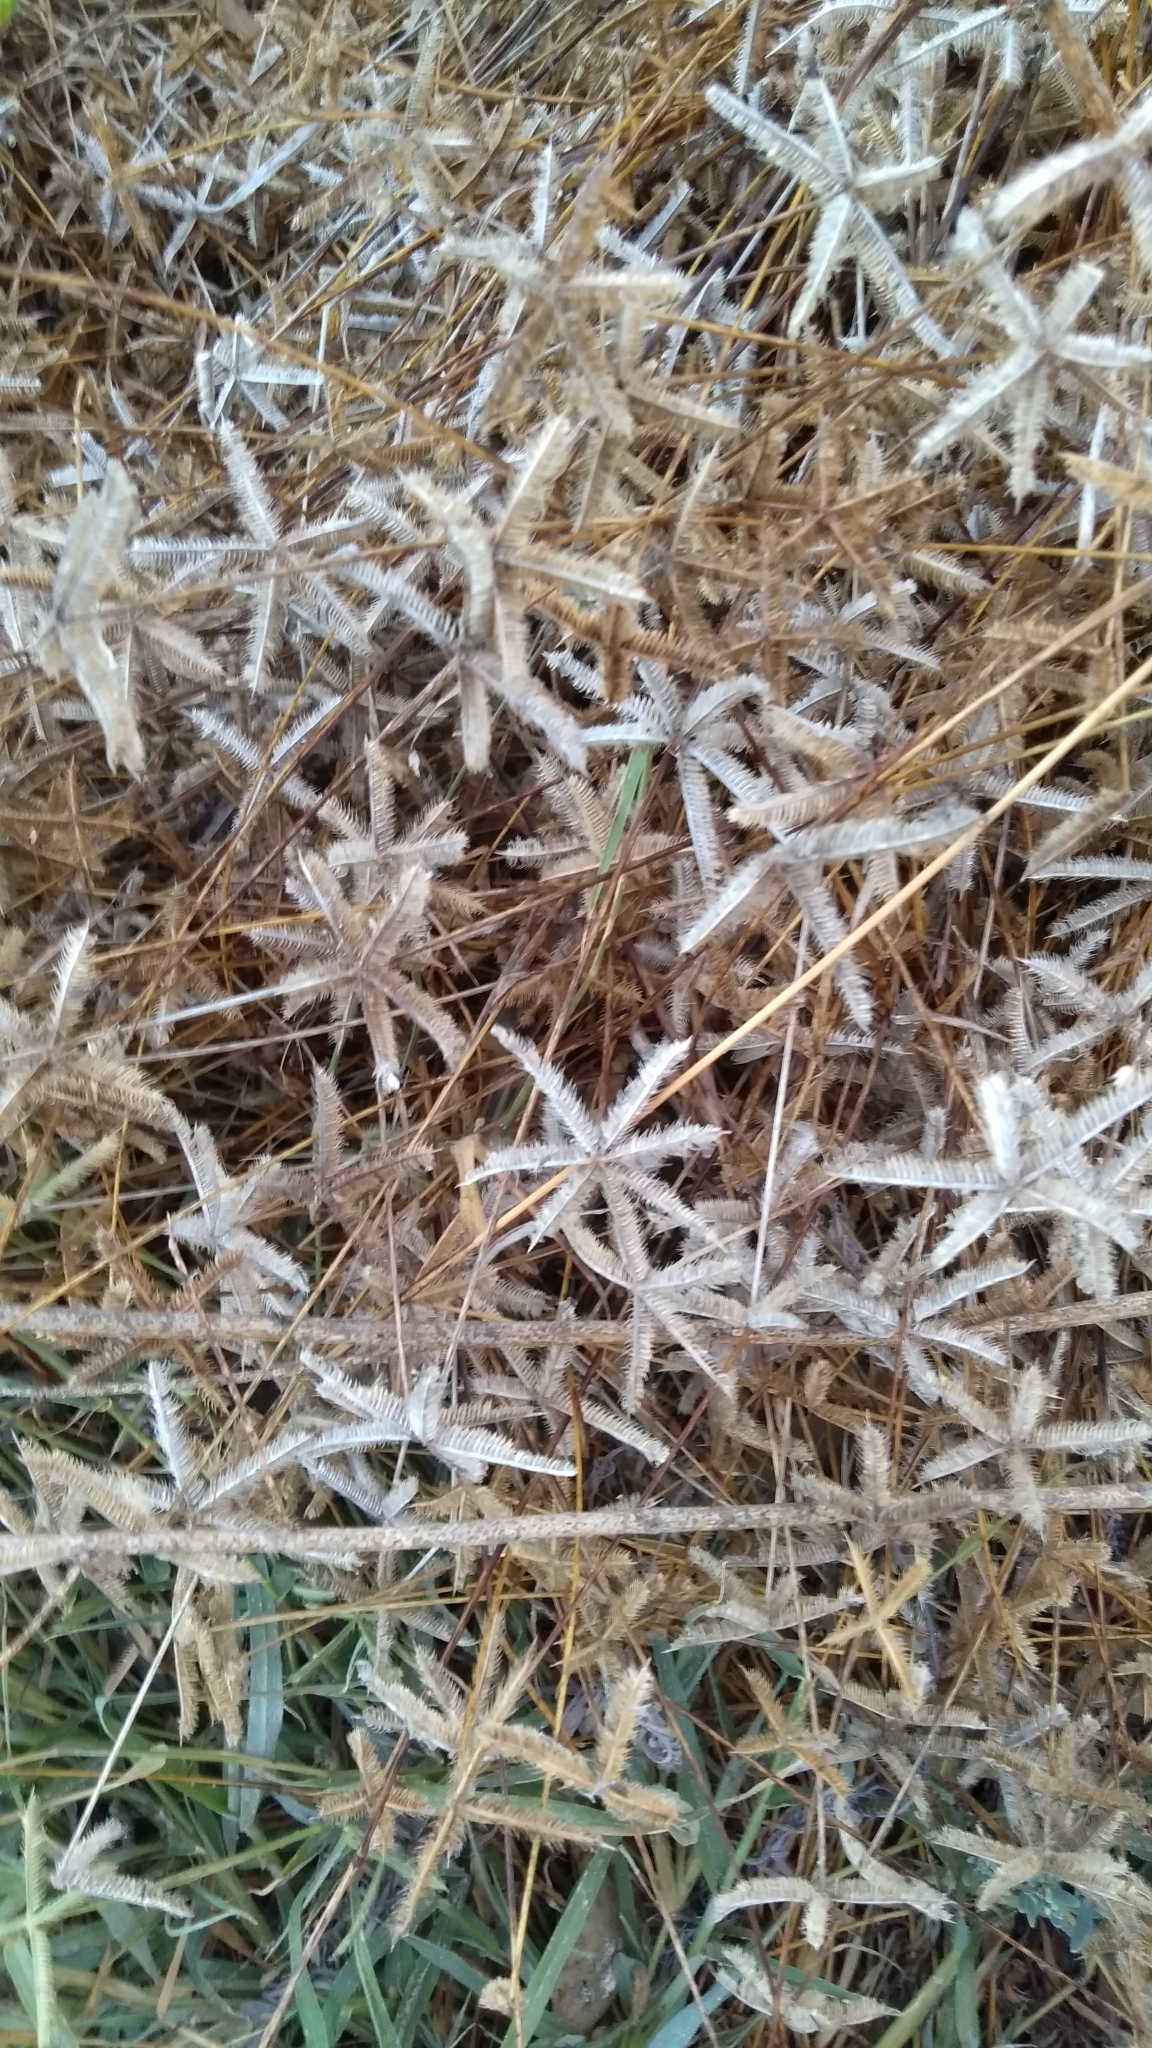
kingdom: Plantae
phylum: Tracheophyta
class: Liliopsida
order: Poales
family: Poaceae
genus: Dactyloctenium
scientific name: Dactyloctenium aegyptium
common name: Egyptian grass
